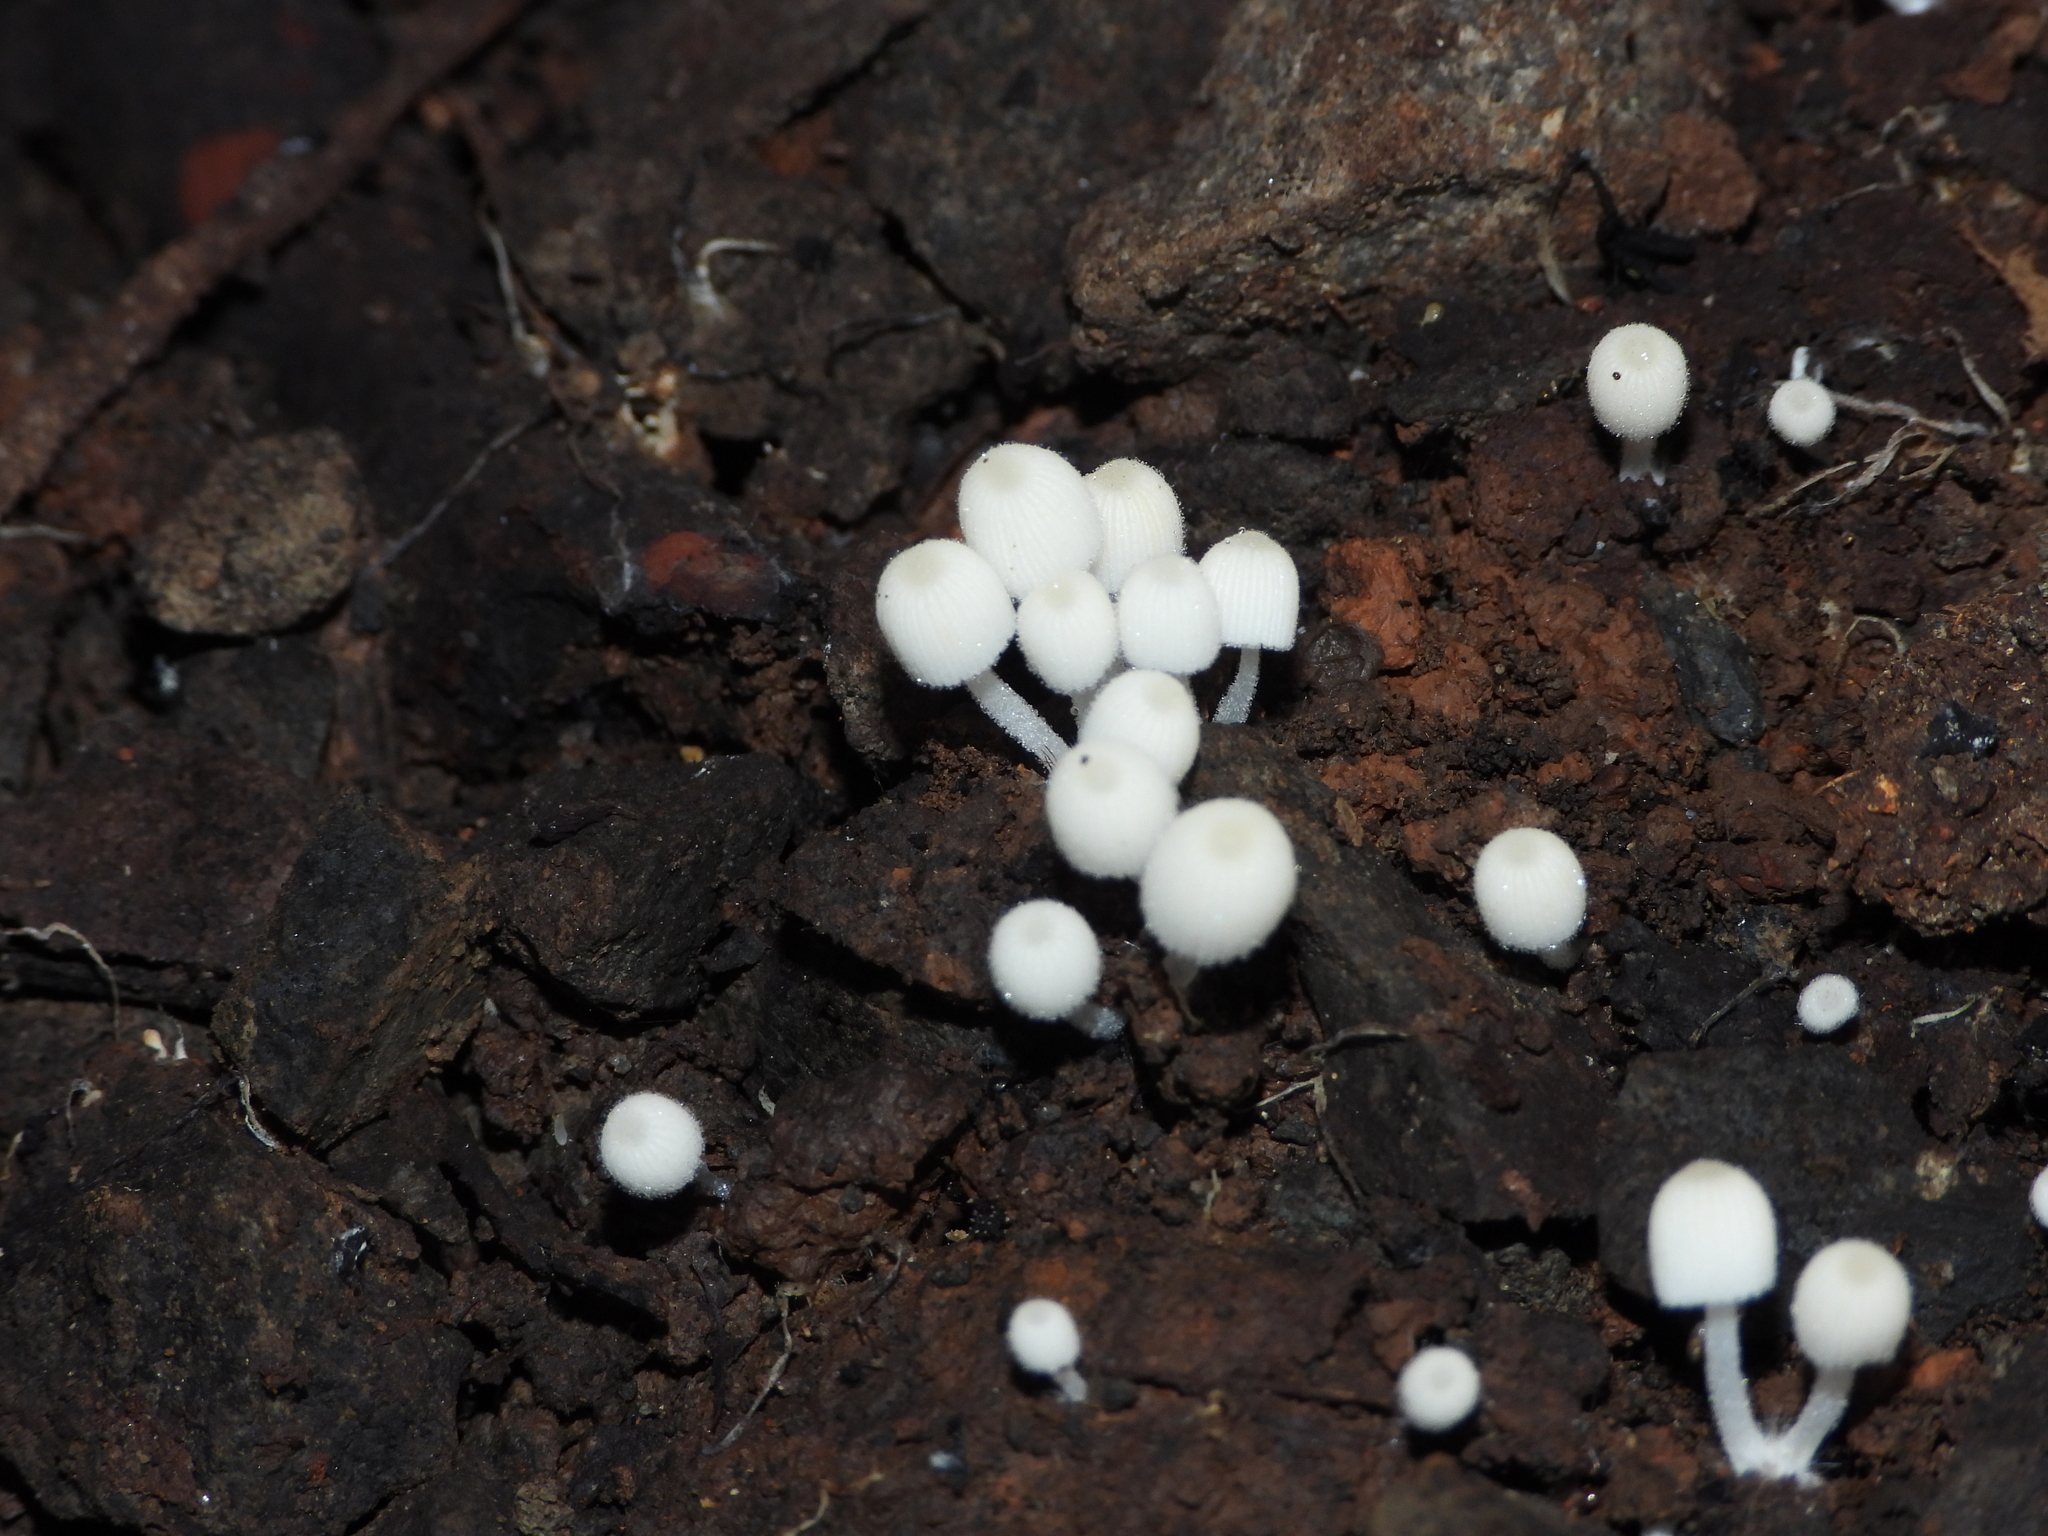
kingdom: Fungi
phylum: Basidiomycota
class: Agaricomycetes
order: Agaricales
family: Psathyrellaceae
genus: Coprinellus
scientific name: Coprinellus disseminatus
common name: Fairies' bonnets
